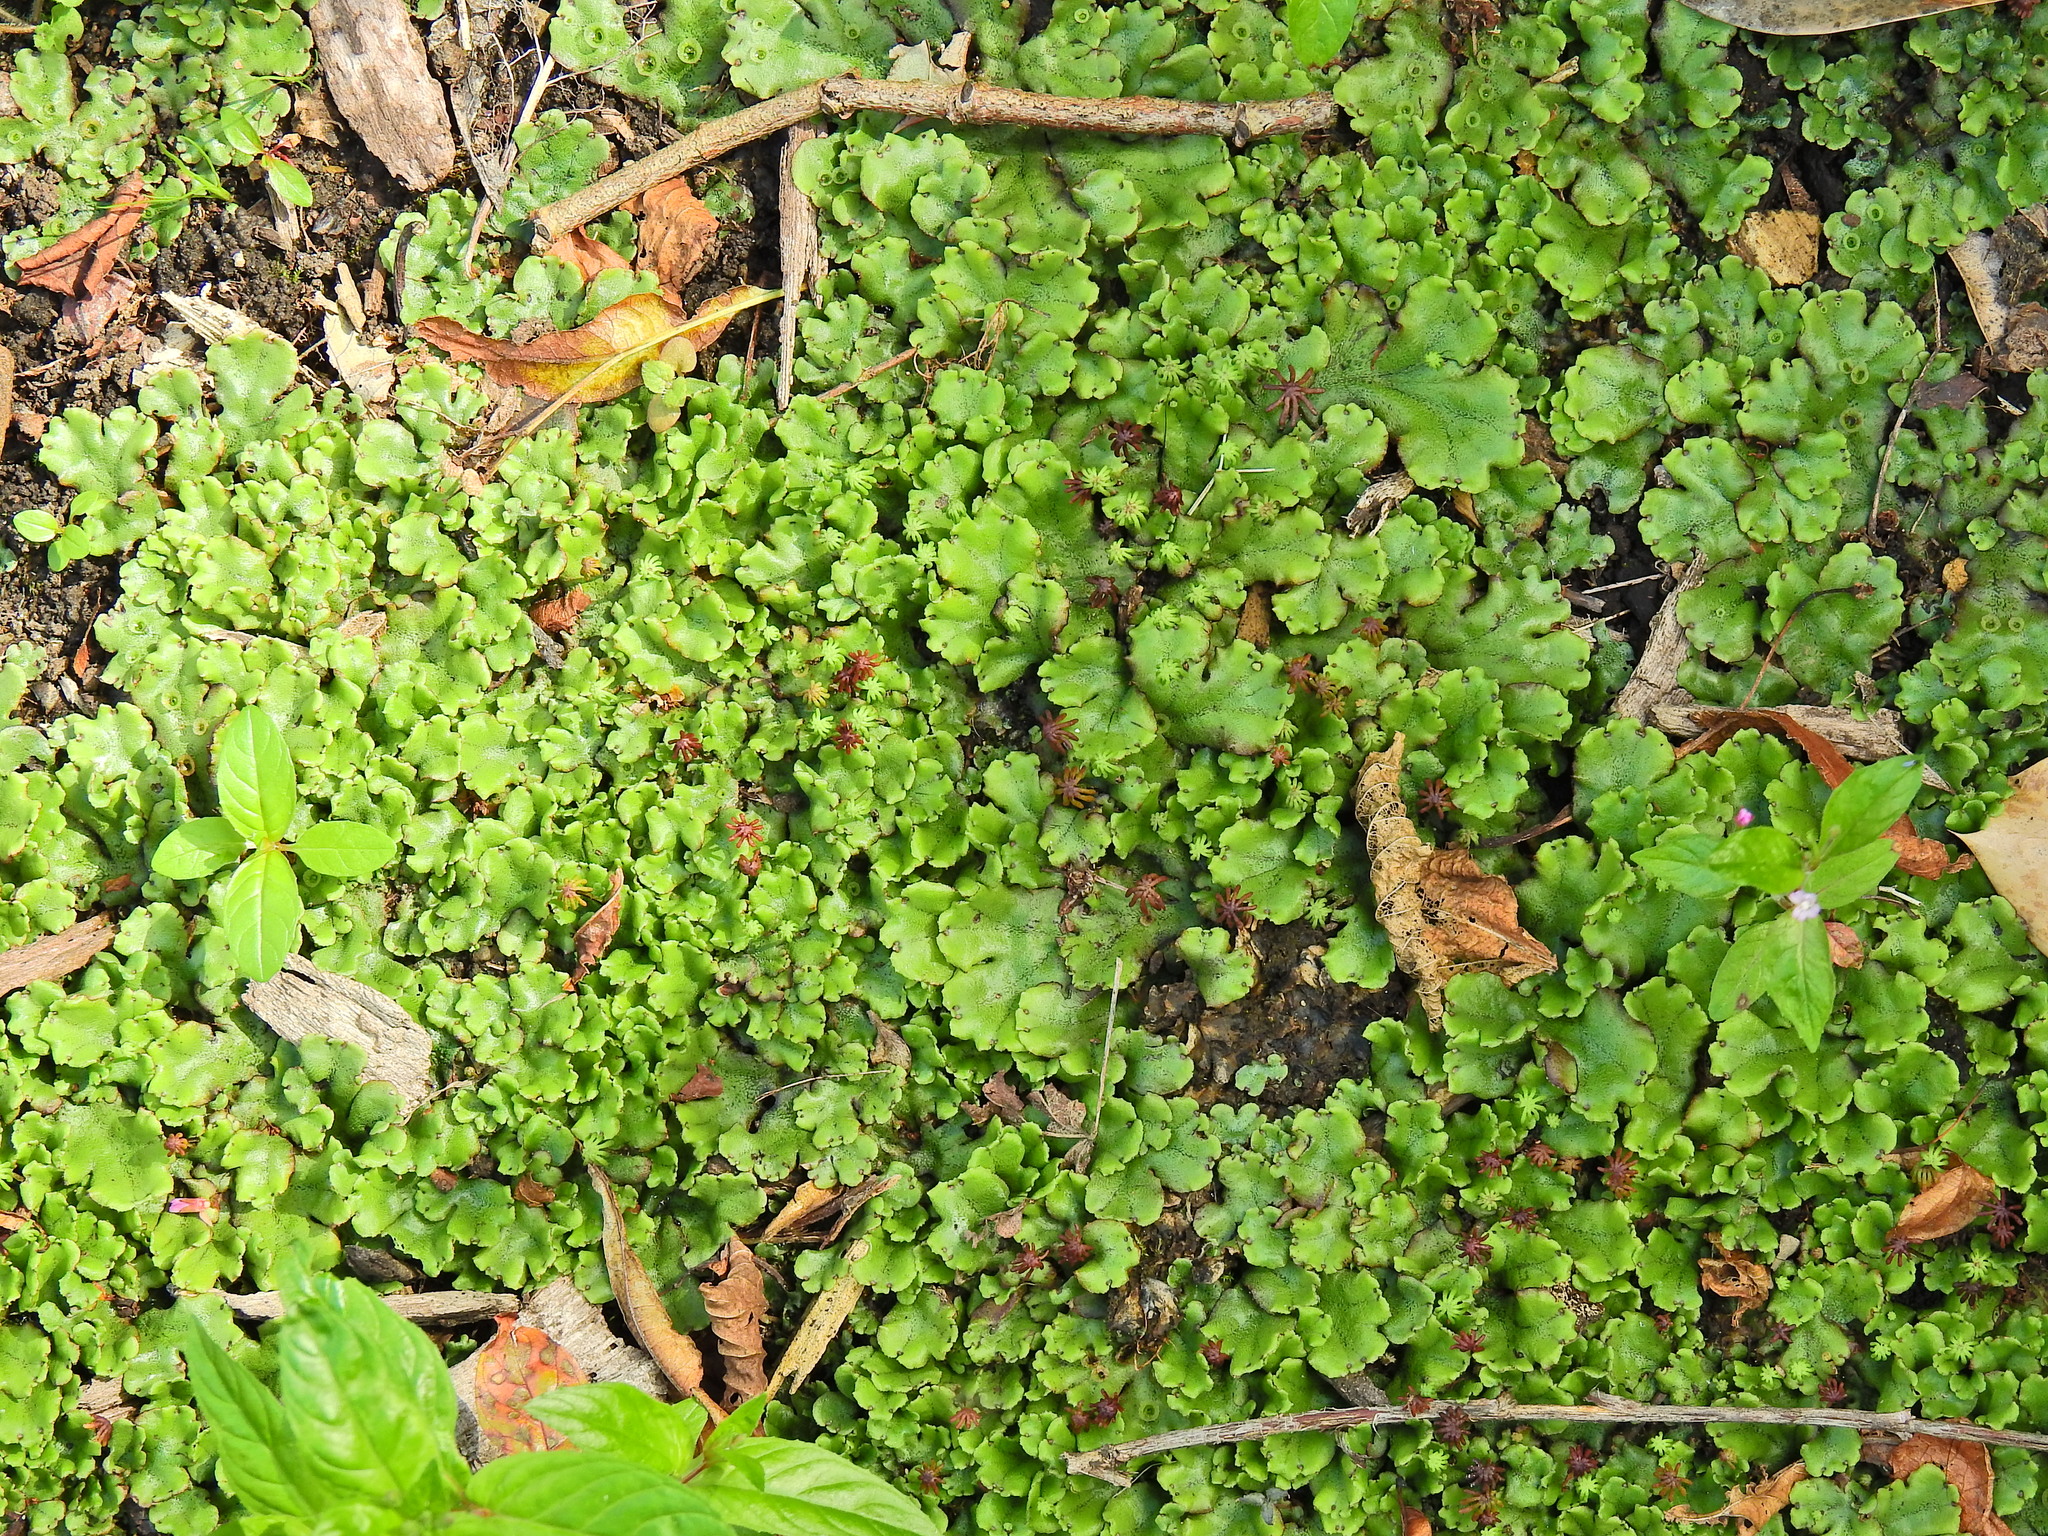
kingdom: Plantae
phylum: Marchantiophyta
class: Marchantiopsida
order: Marchantiales
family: Marchantiaceae
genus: Marchantia
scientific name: Marchantia polymorpha
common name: Common liverwort
